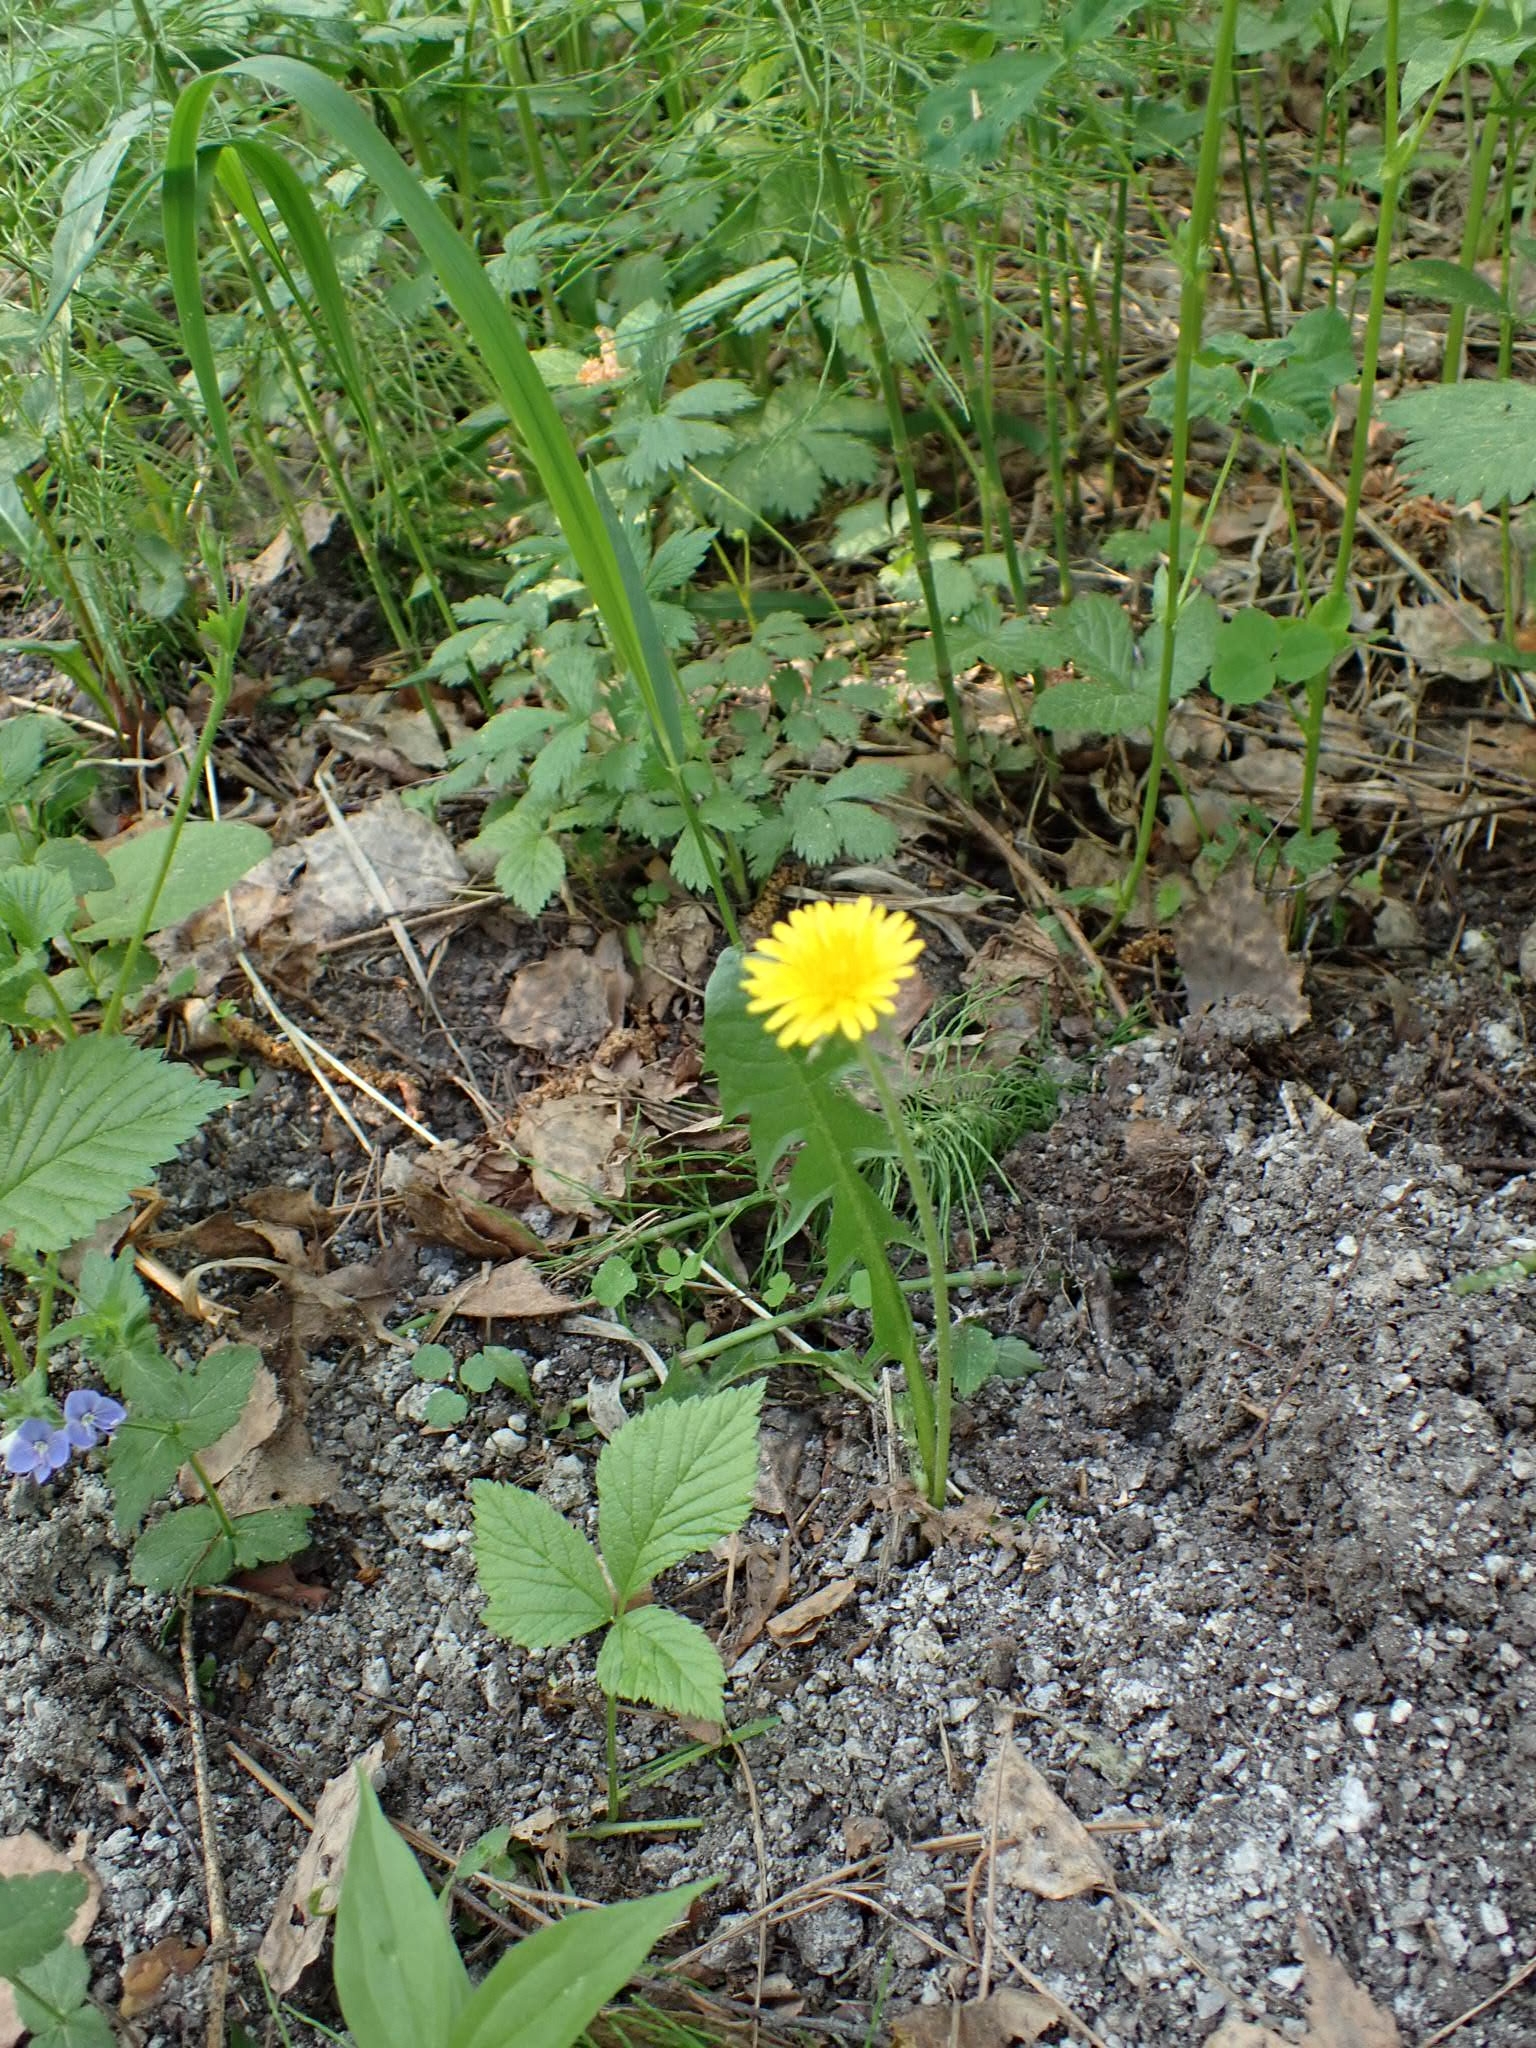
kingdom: Plantae
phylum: Tracheophyta
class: Magnoliopsida
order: Asterales
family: Asteraceae
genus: Taraxacum
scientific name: Taraxacum officinale
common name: Common dandelion
